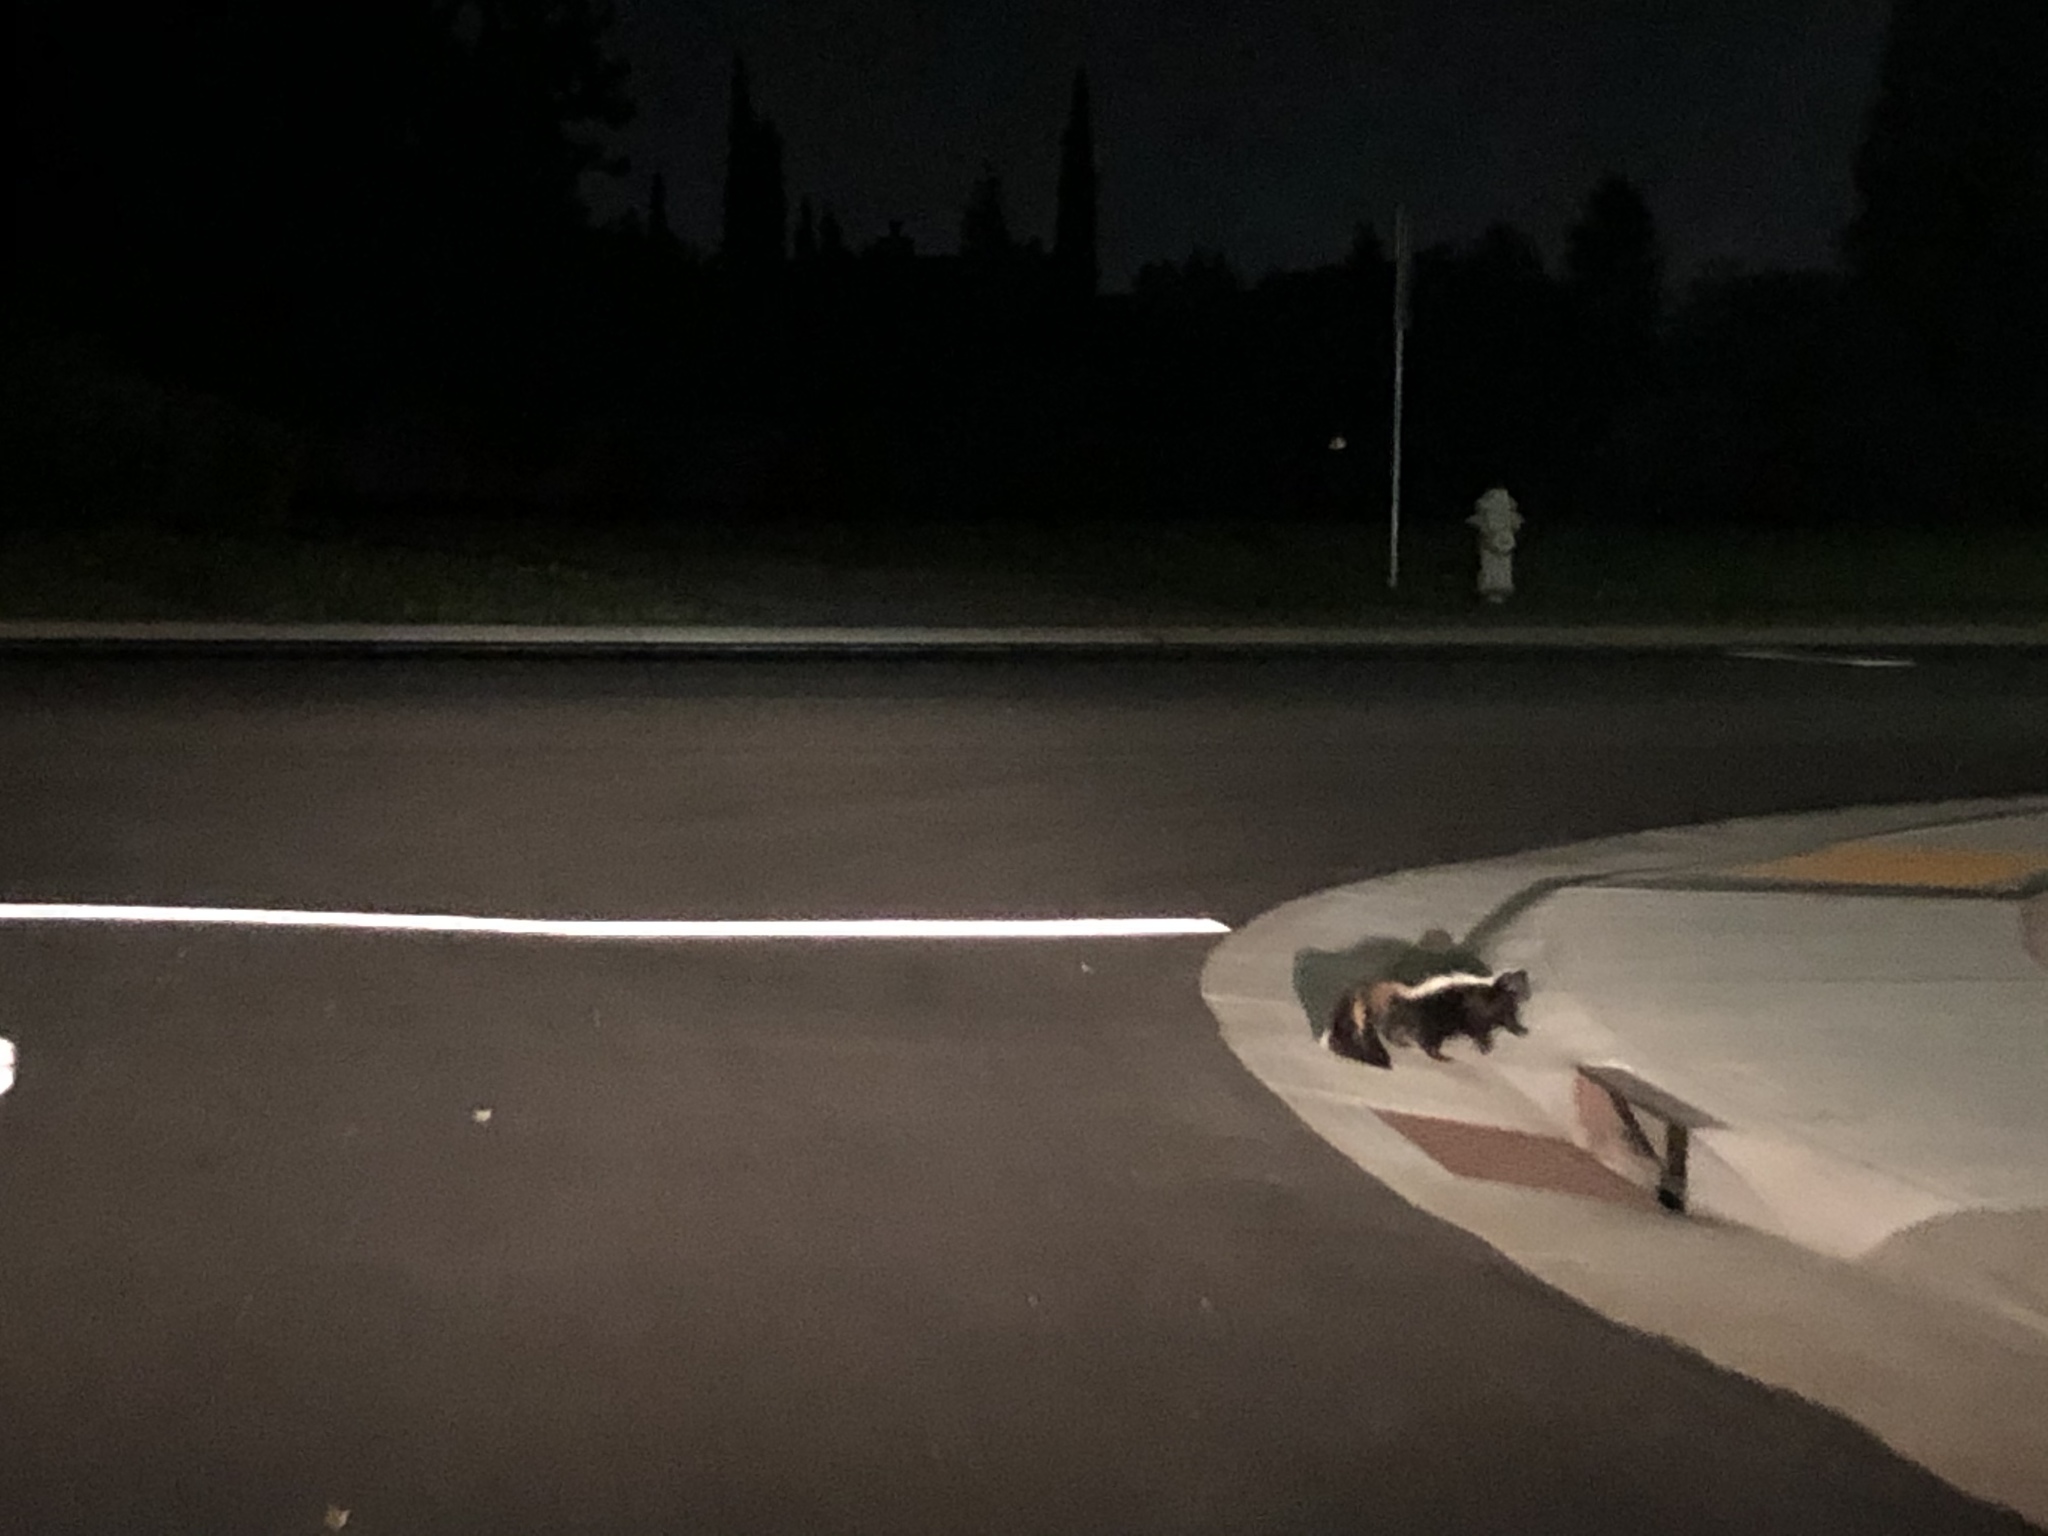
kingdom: Animalia
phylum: Chordata
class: Mammalia
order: Carnivora
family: Mephitidae
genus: Mephitis
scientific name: Mephitis mephitis
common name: Striped skunk
